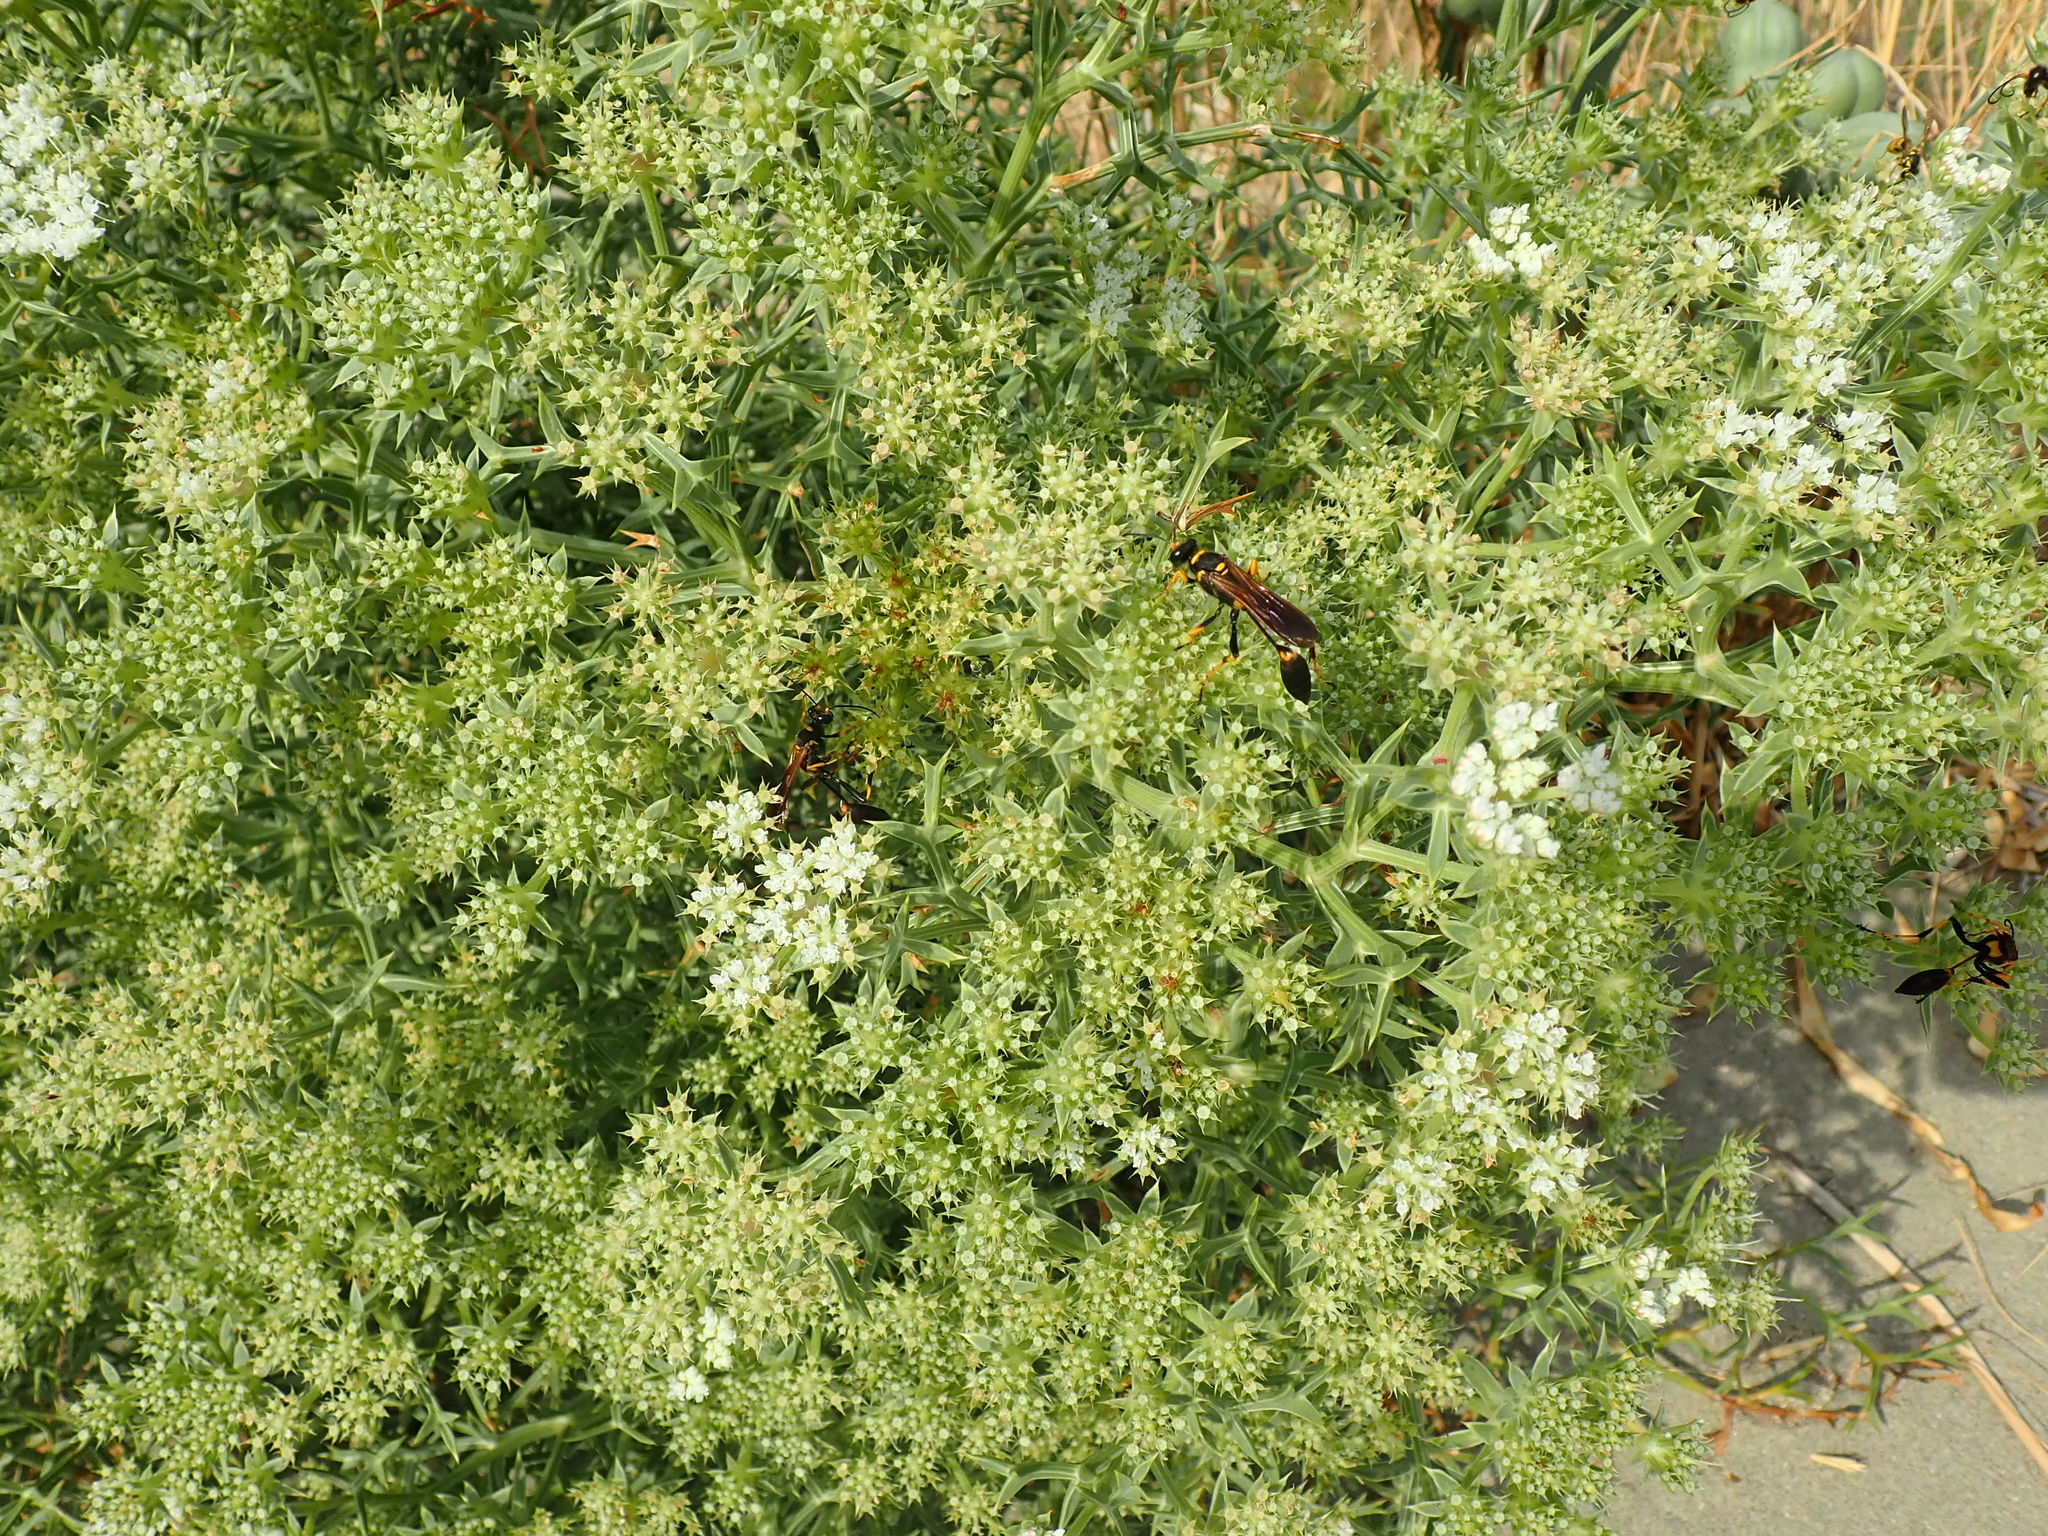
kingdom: Plantae
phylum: Tracheophyta
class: Magnoliopsida
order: Apiales
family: Apiaceae
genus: Echinophora
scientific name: Echinophora spinosa
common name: Prickly samphire
